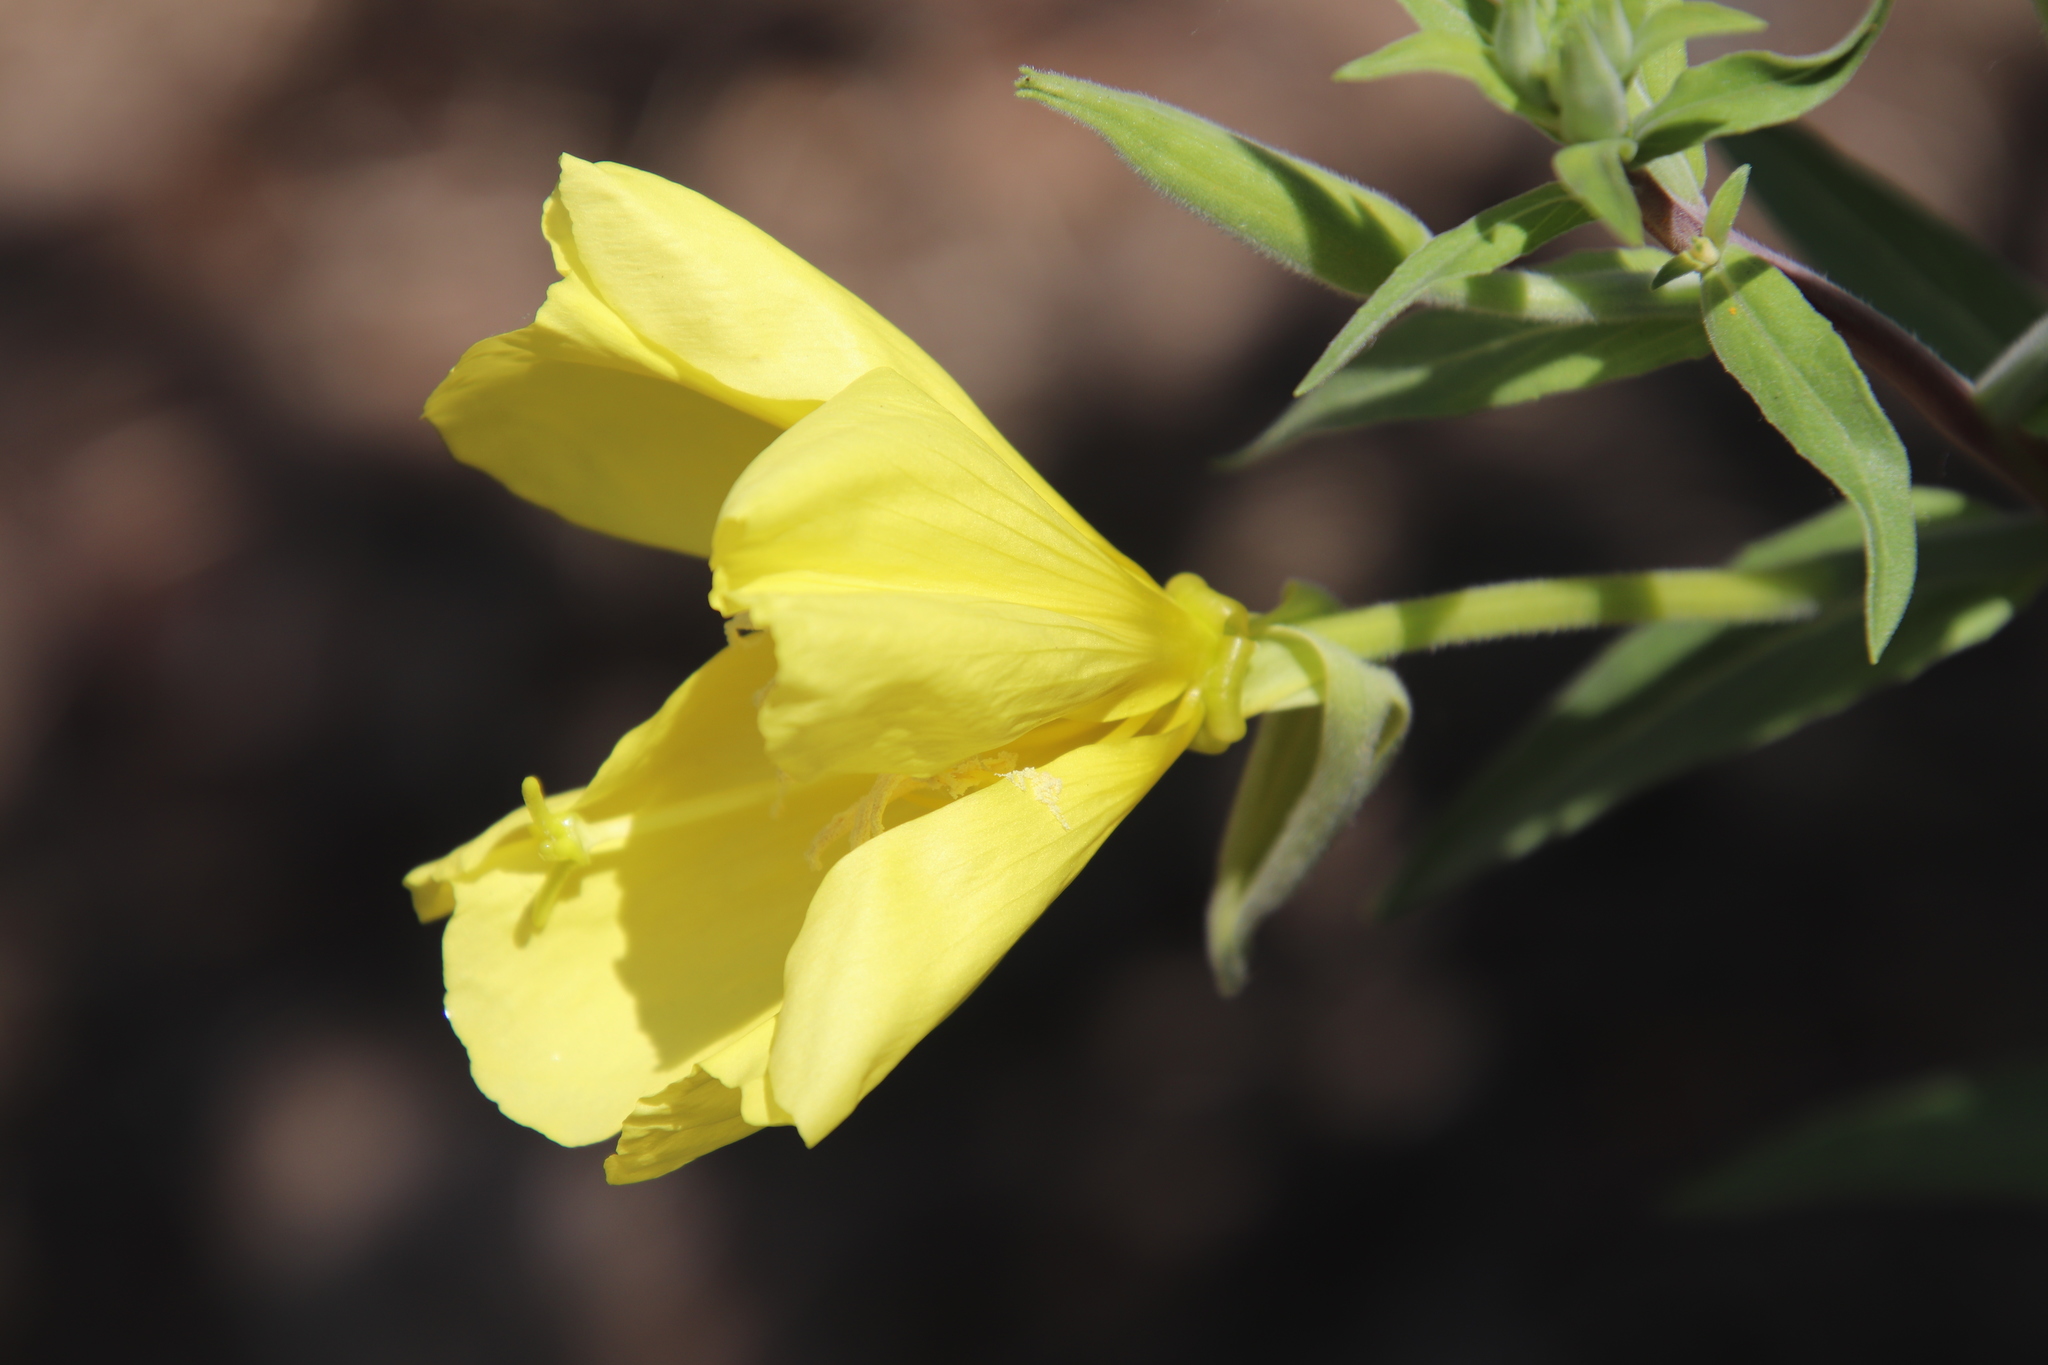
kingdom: Plantae
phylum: Tracheophyta
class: Magnoliopsida
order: Myrtales
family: Onagraceae
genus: Oenothera
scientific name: Oenothera elata
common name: Hooker's evening-primrose
